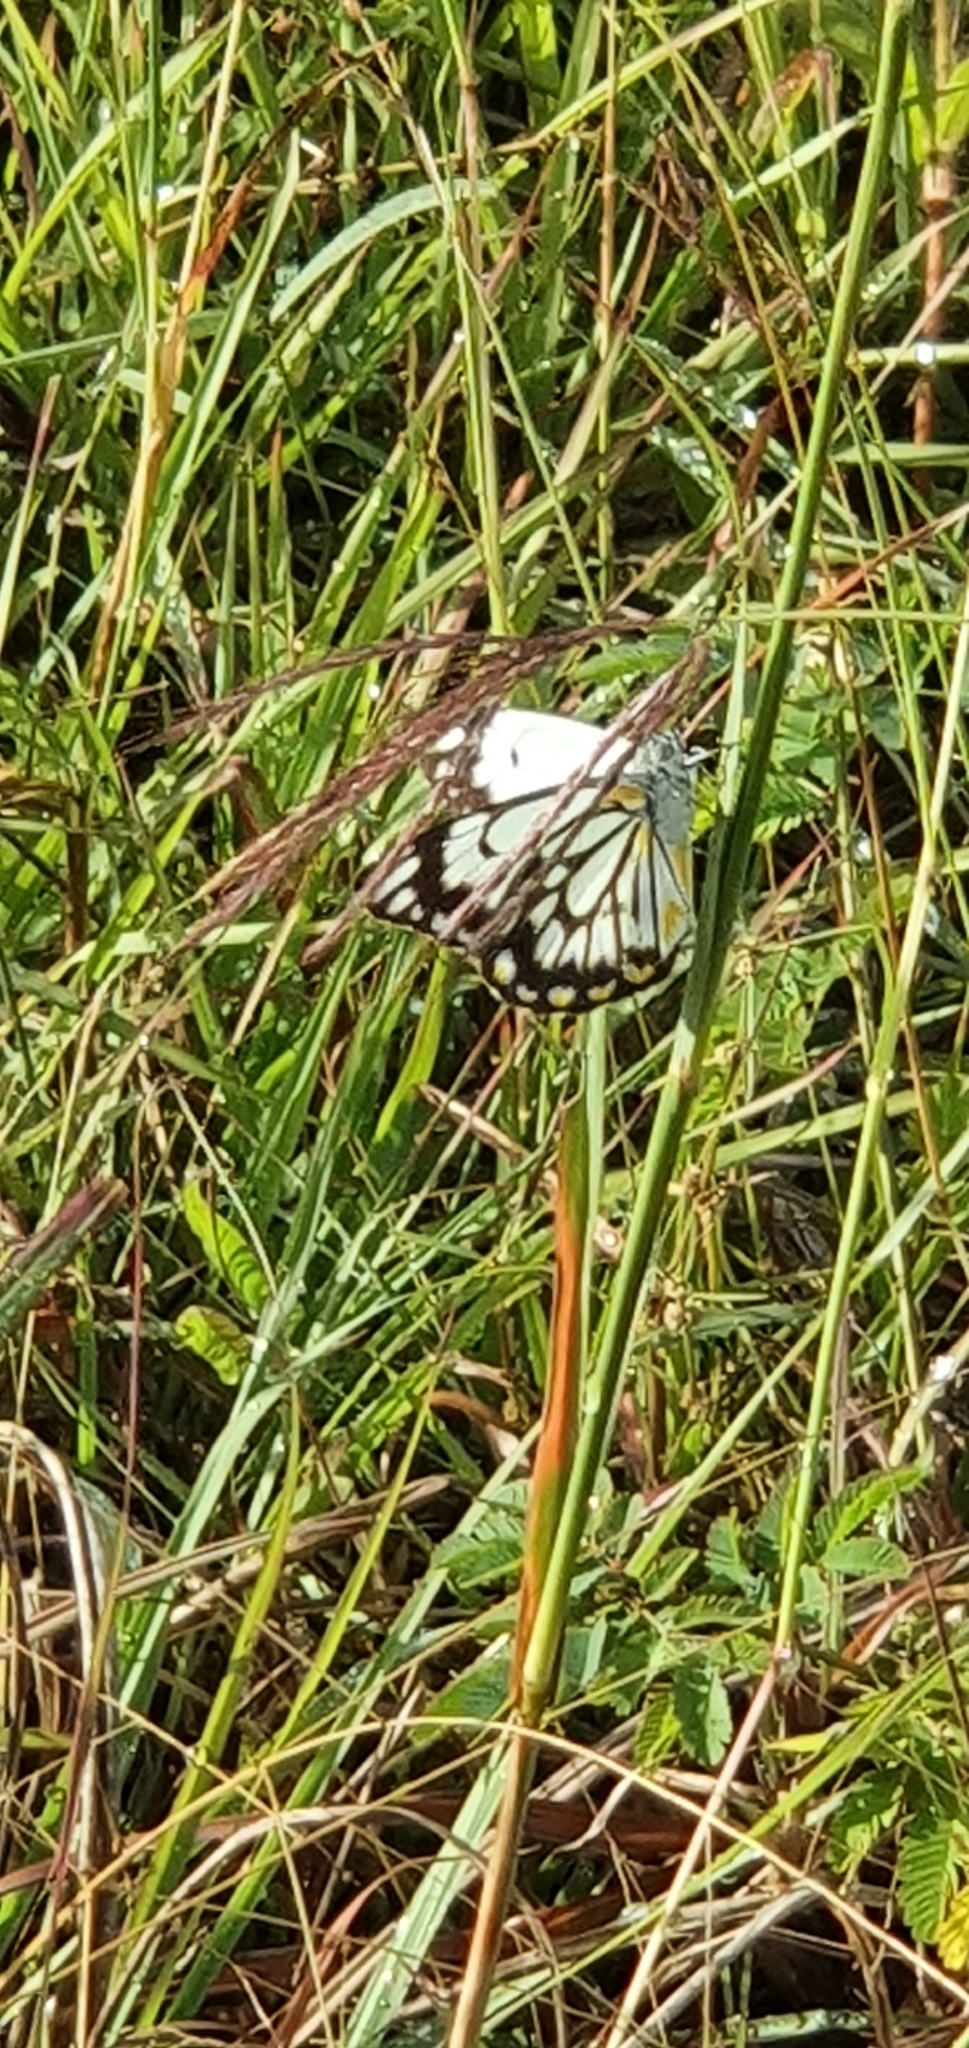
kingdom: Animalia
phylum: Arthropoda
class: Insecta
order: Lepidoptera
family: Pieridae
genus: Belenois
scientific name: Belenois java
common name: Caper white
